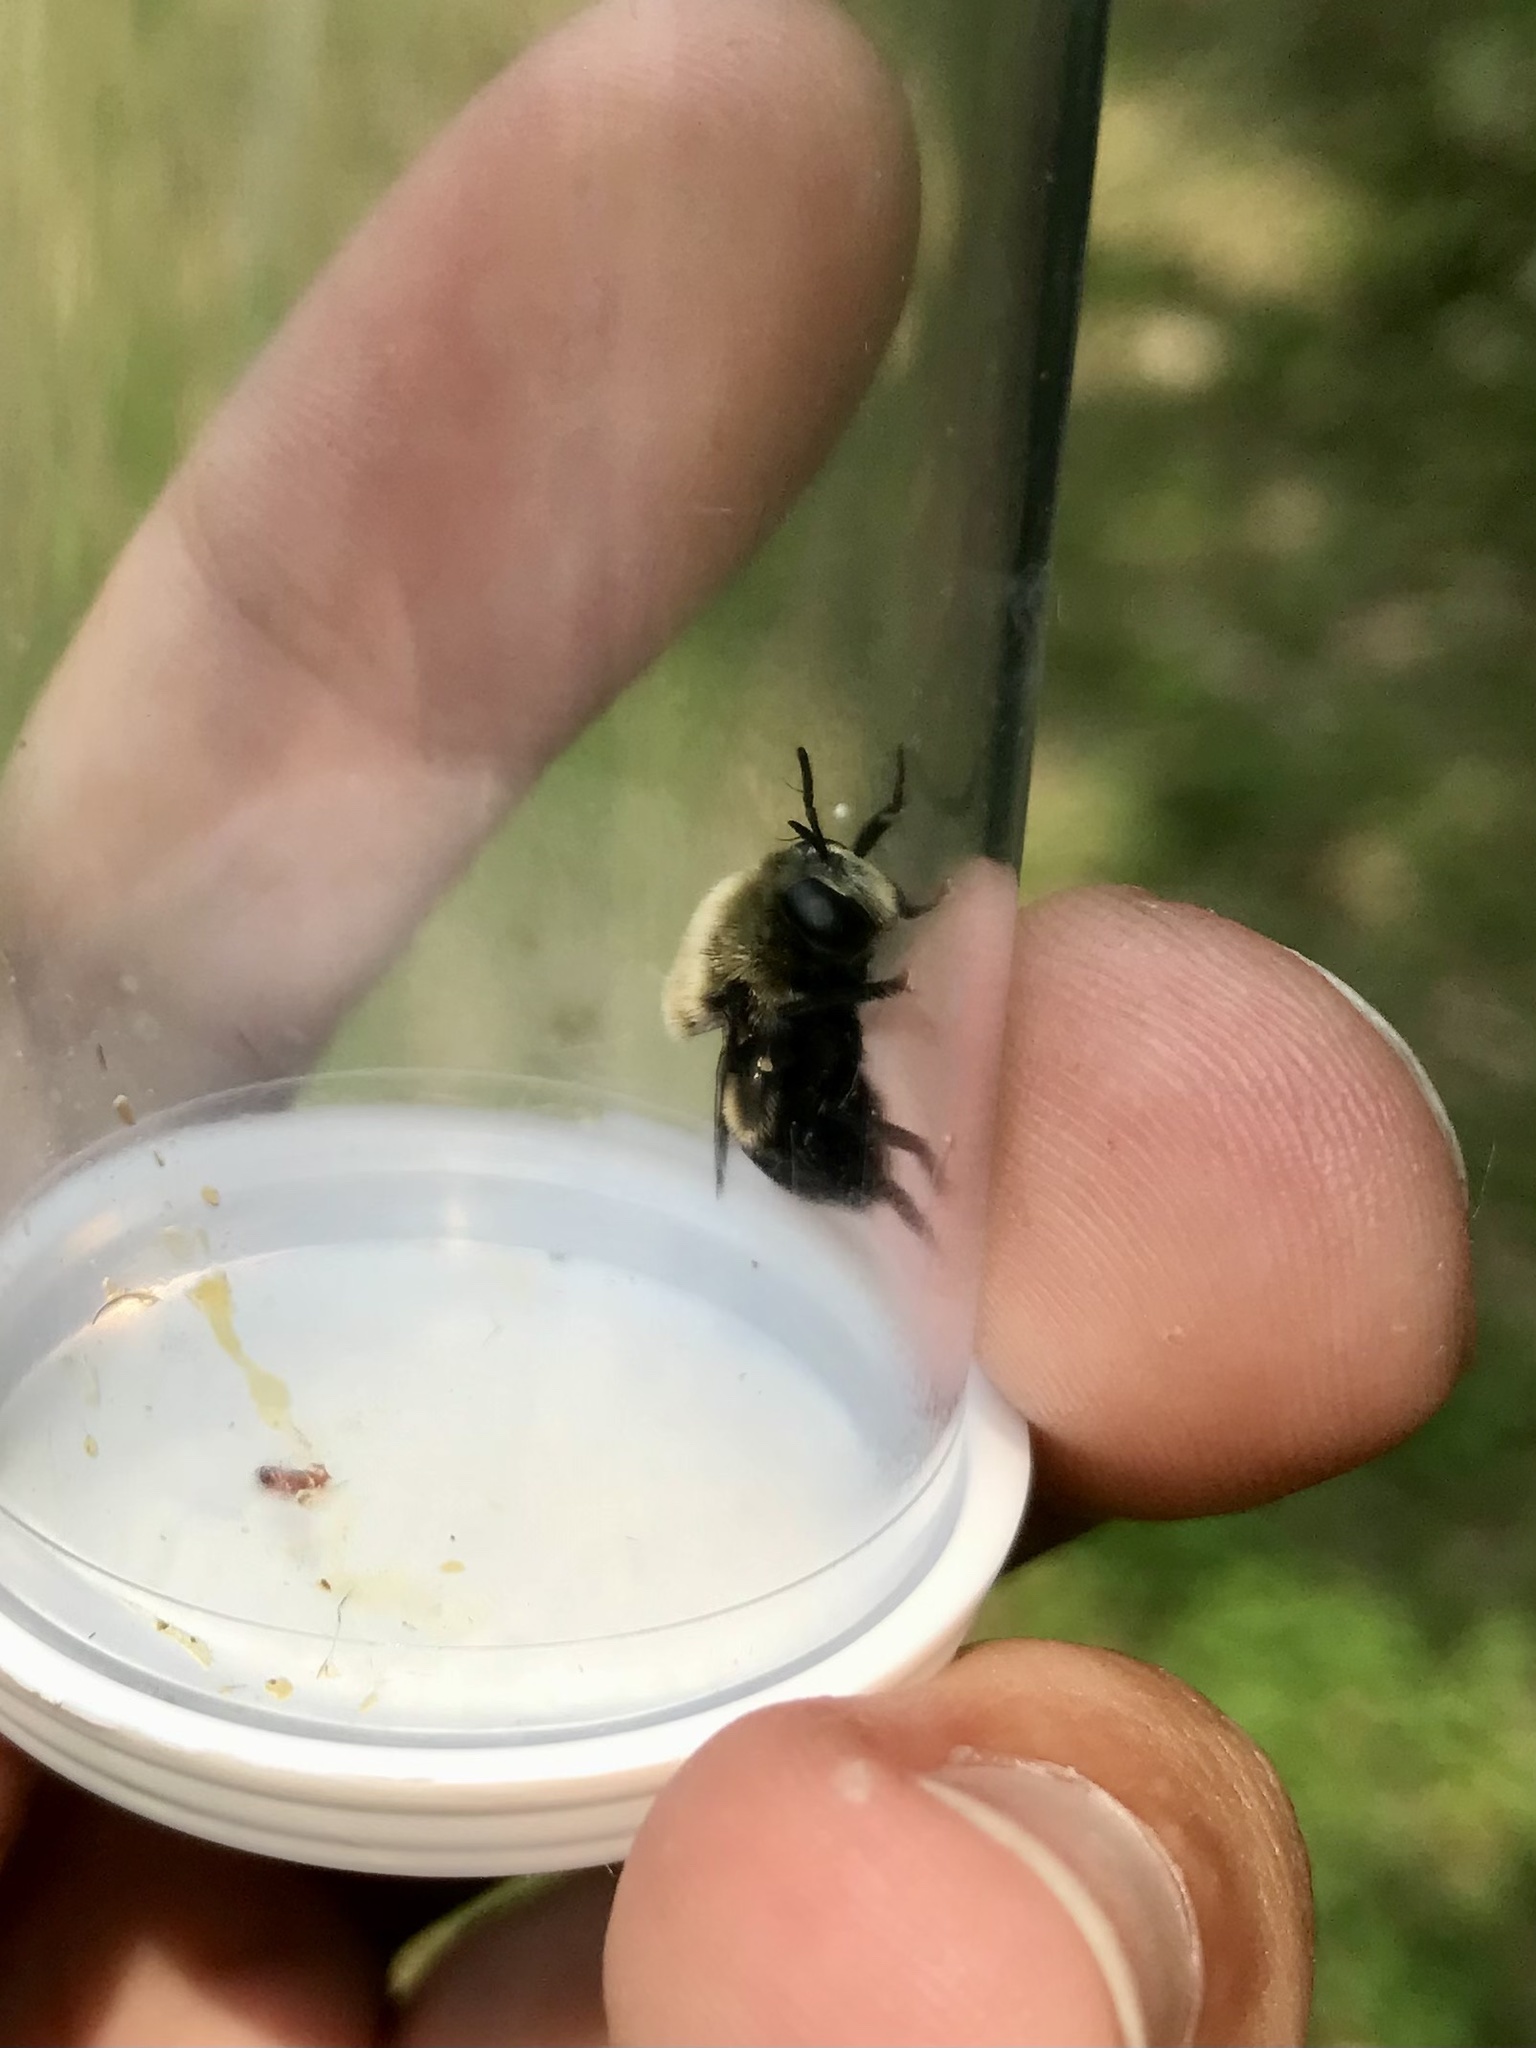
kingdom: Animalia
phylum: Arthropoda
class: Insecta
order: Diptera
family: Syrphidae
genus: Microdon
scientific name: Microdon megalogaster
